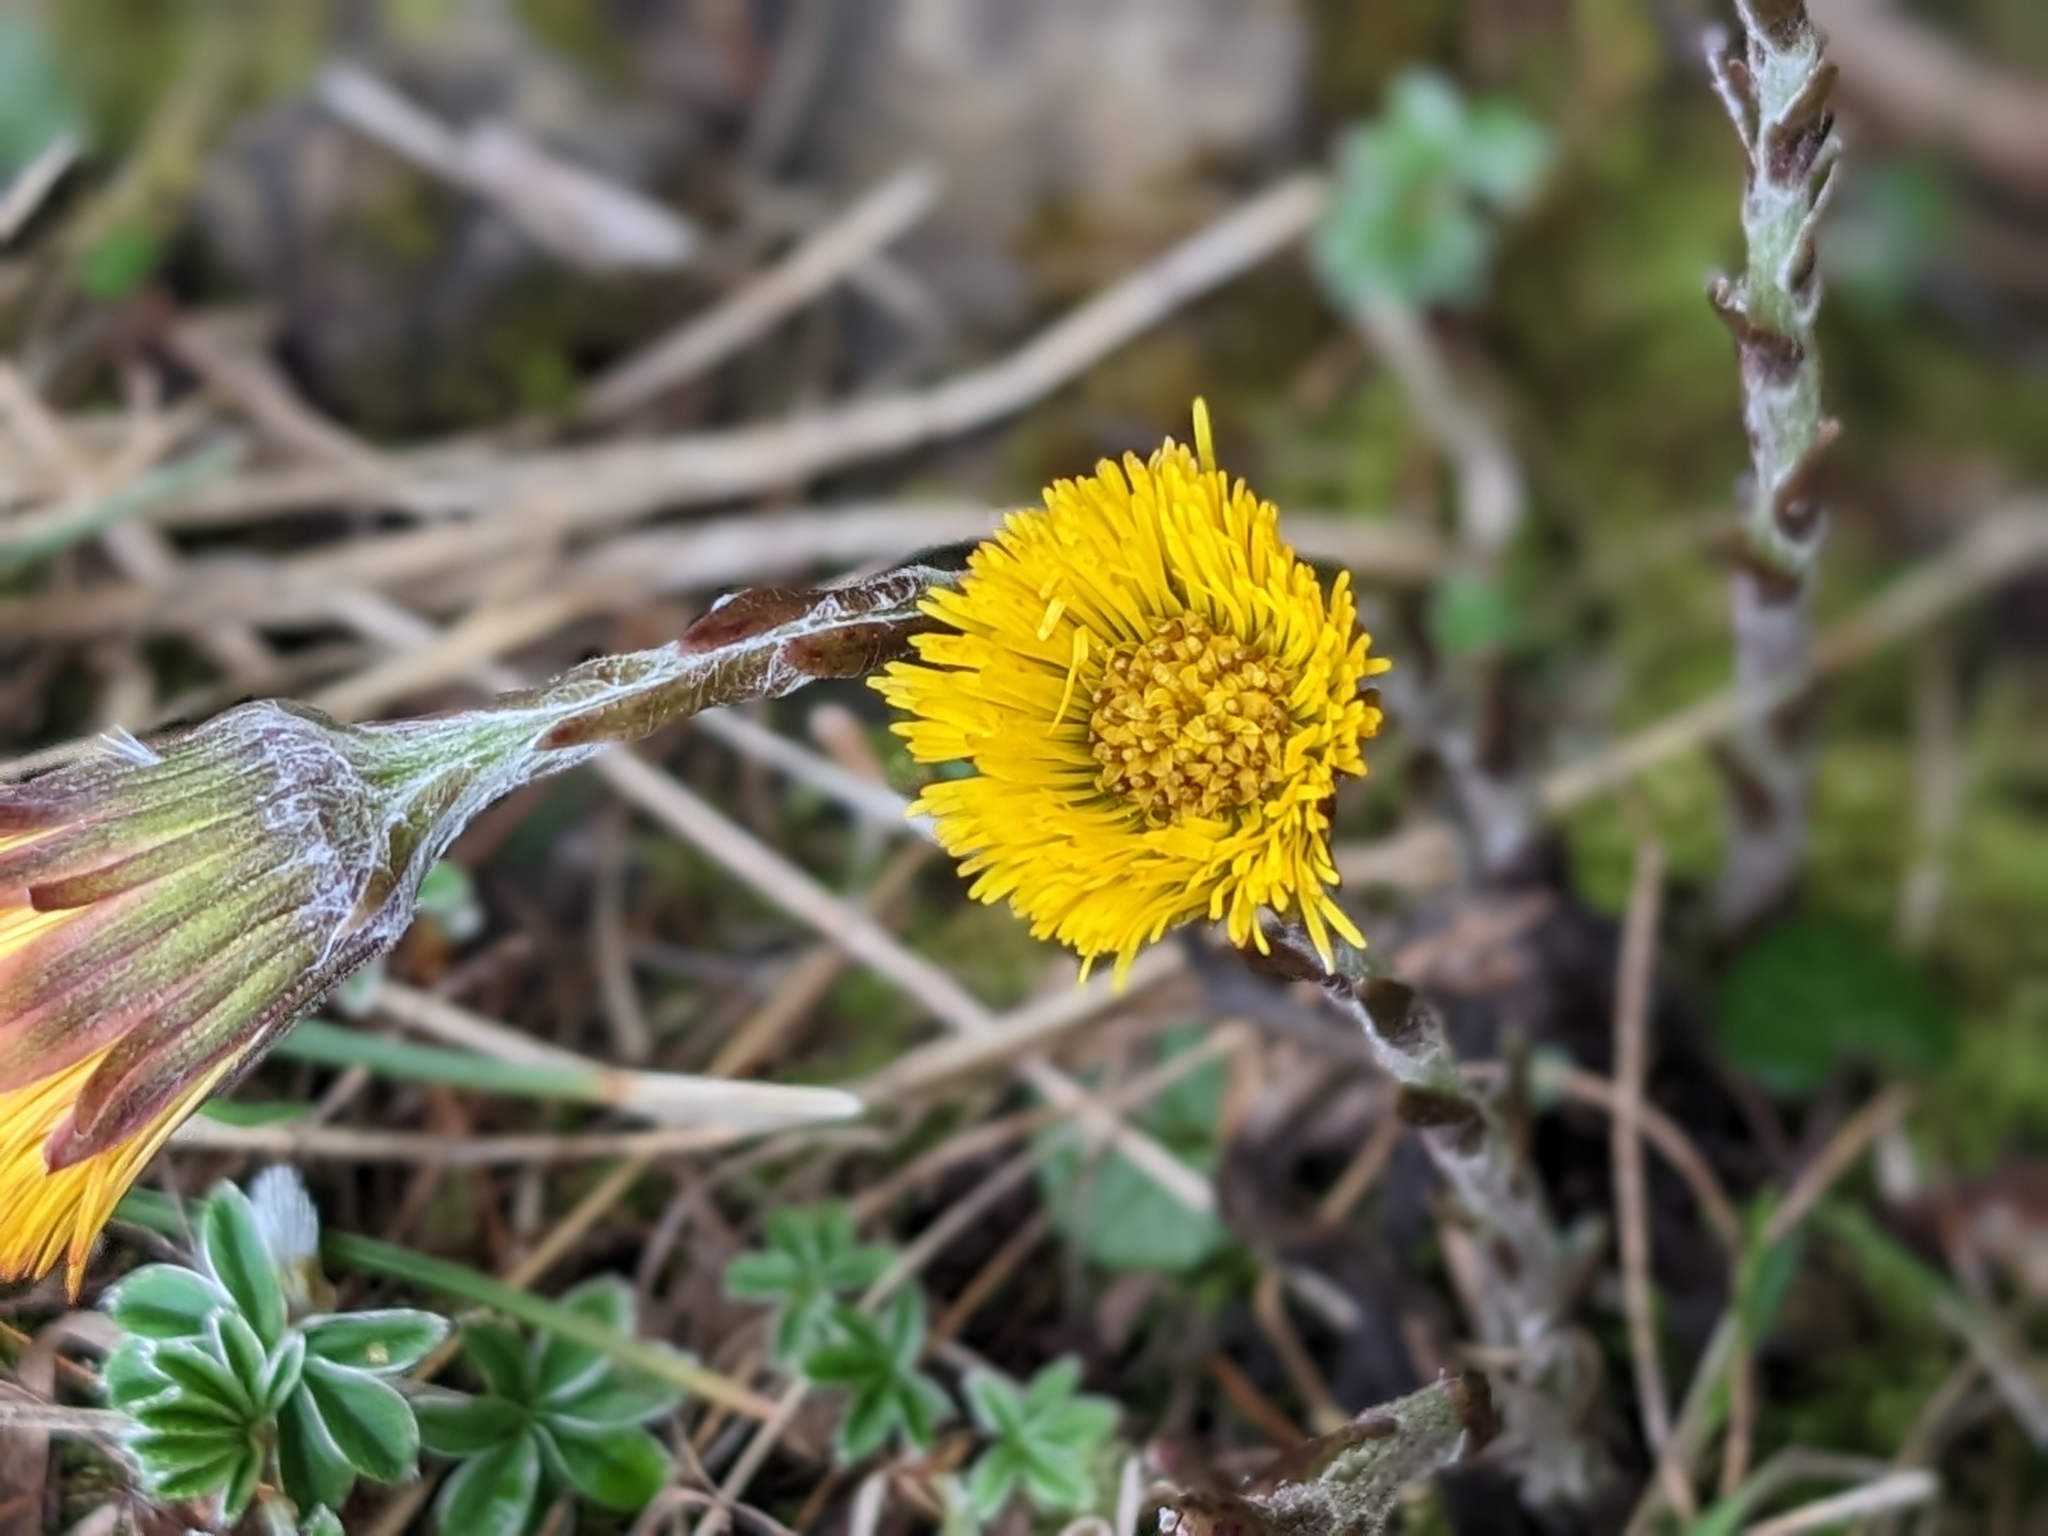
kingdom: Plantae
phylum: Tracheophyta
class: Magnoliopsida
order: Asterales
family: Asteraceae
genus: Tussilago
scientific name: Tussilago farfara
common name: Coltsfoot
